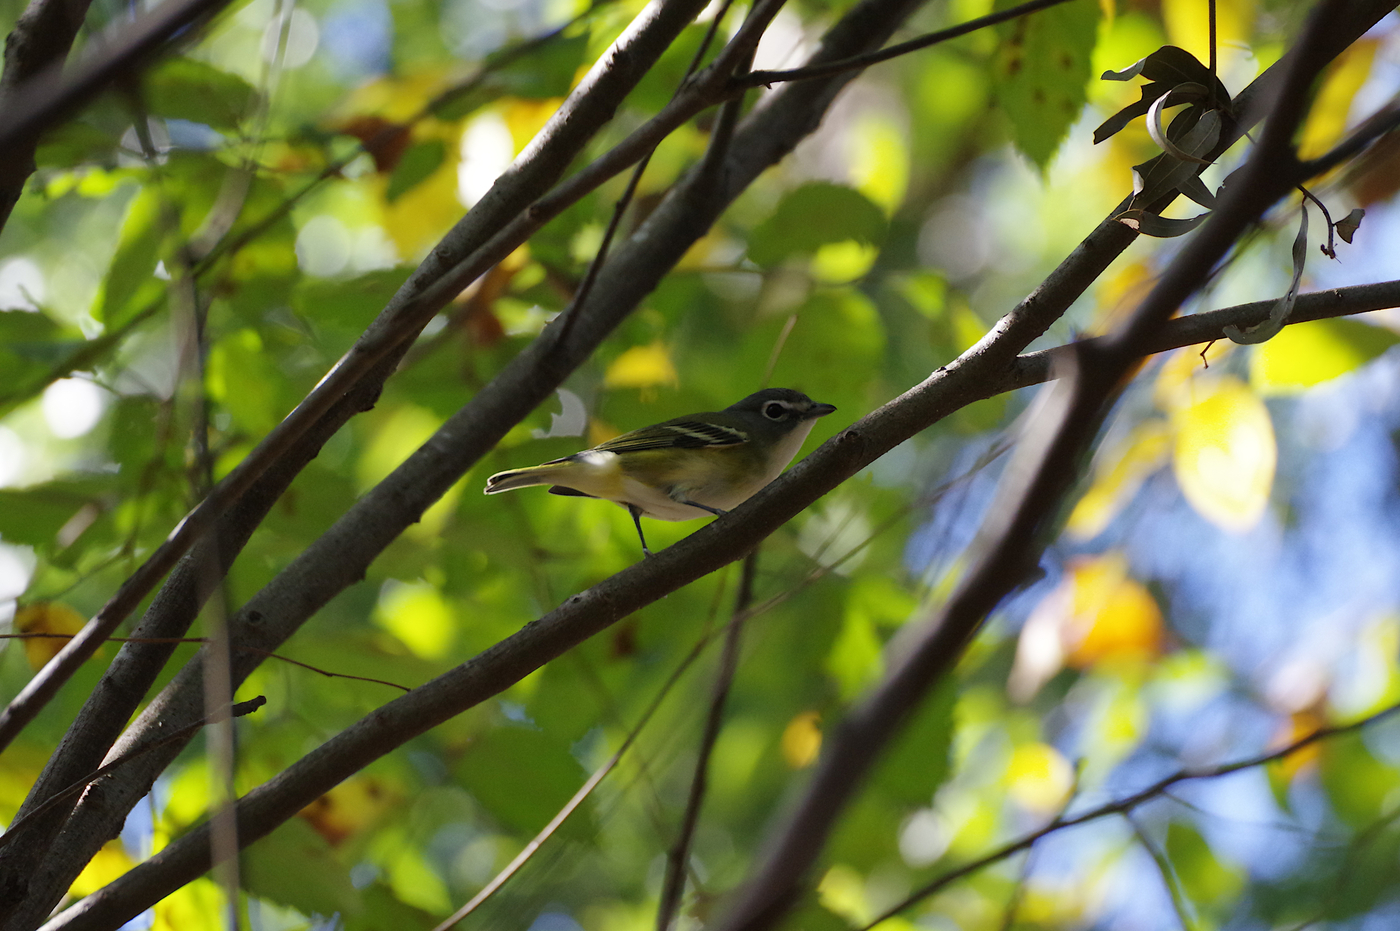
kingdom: Animalia
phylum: Chordata
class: Aves
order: Passeriformes
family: Vireonidae
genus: Vireo
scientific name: Vireo solitarius
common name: Blue-headed vireo
